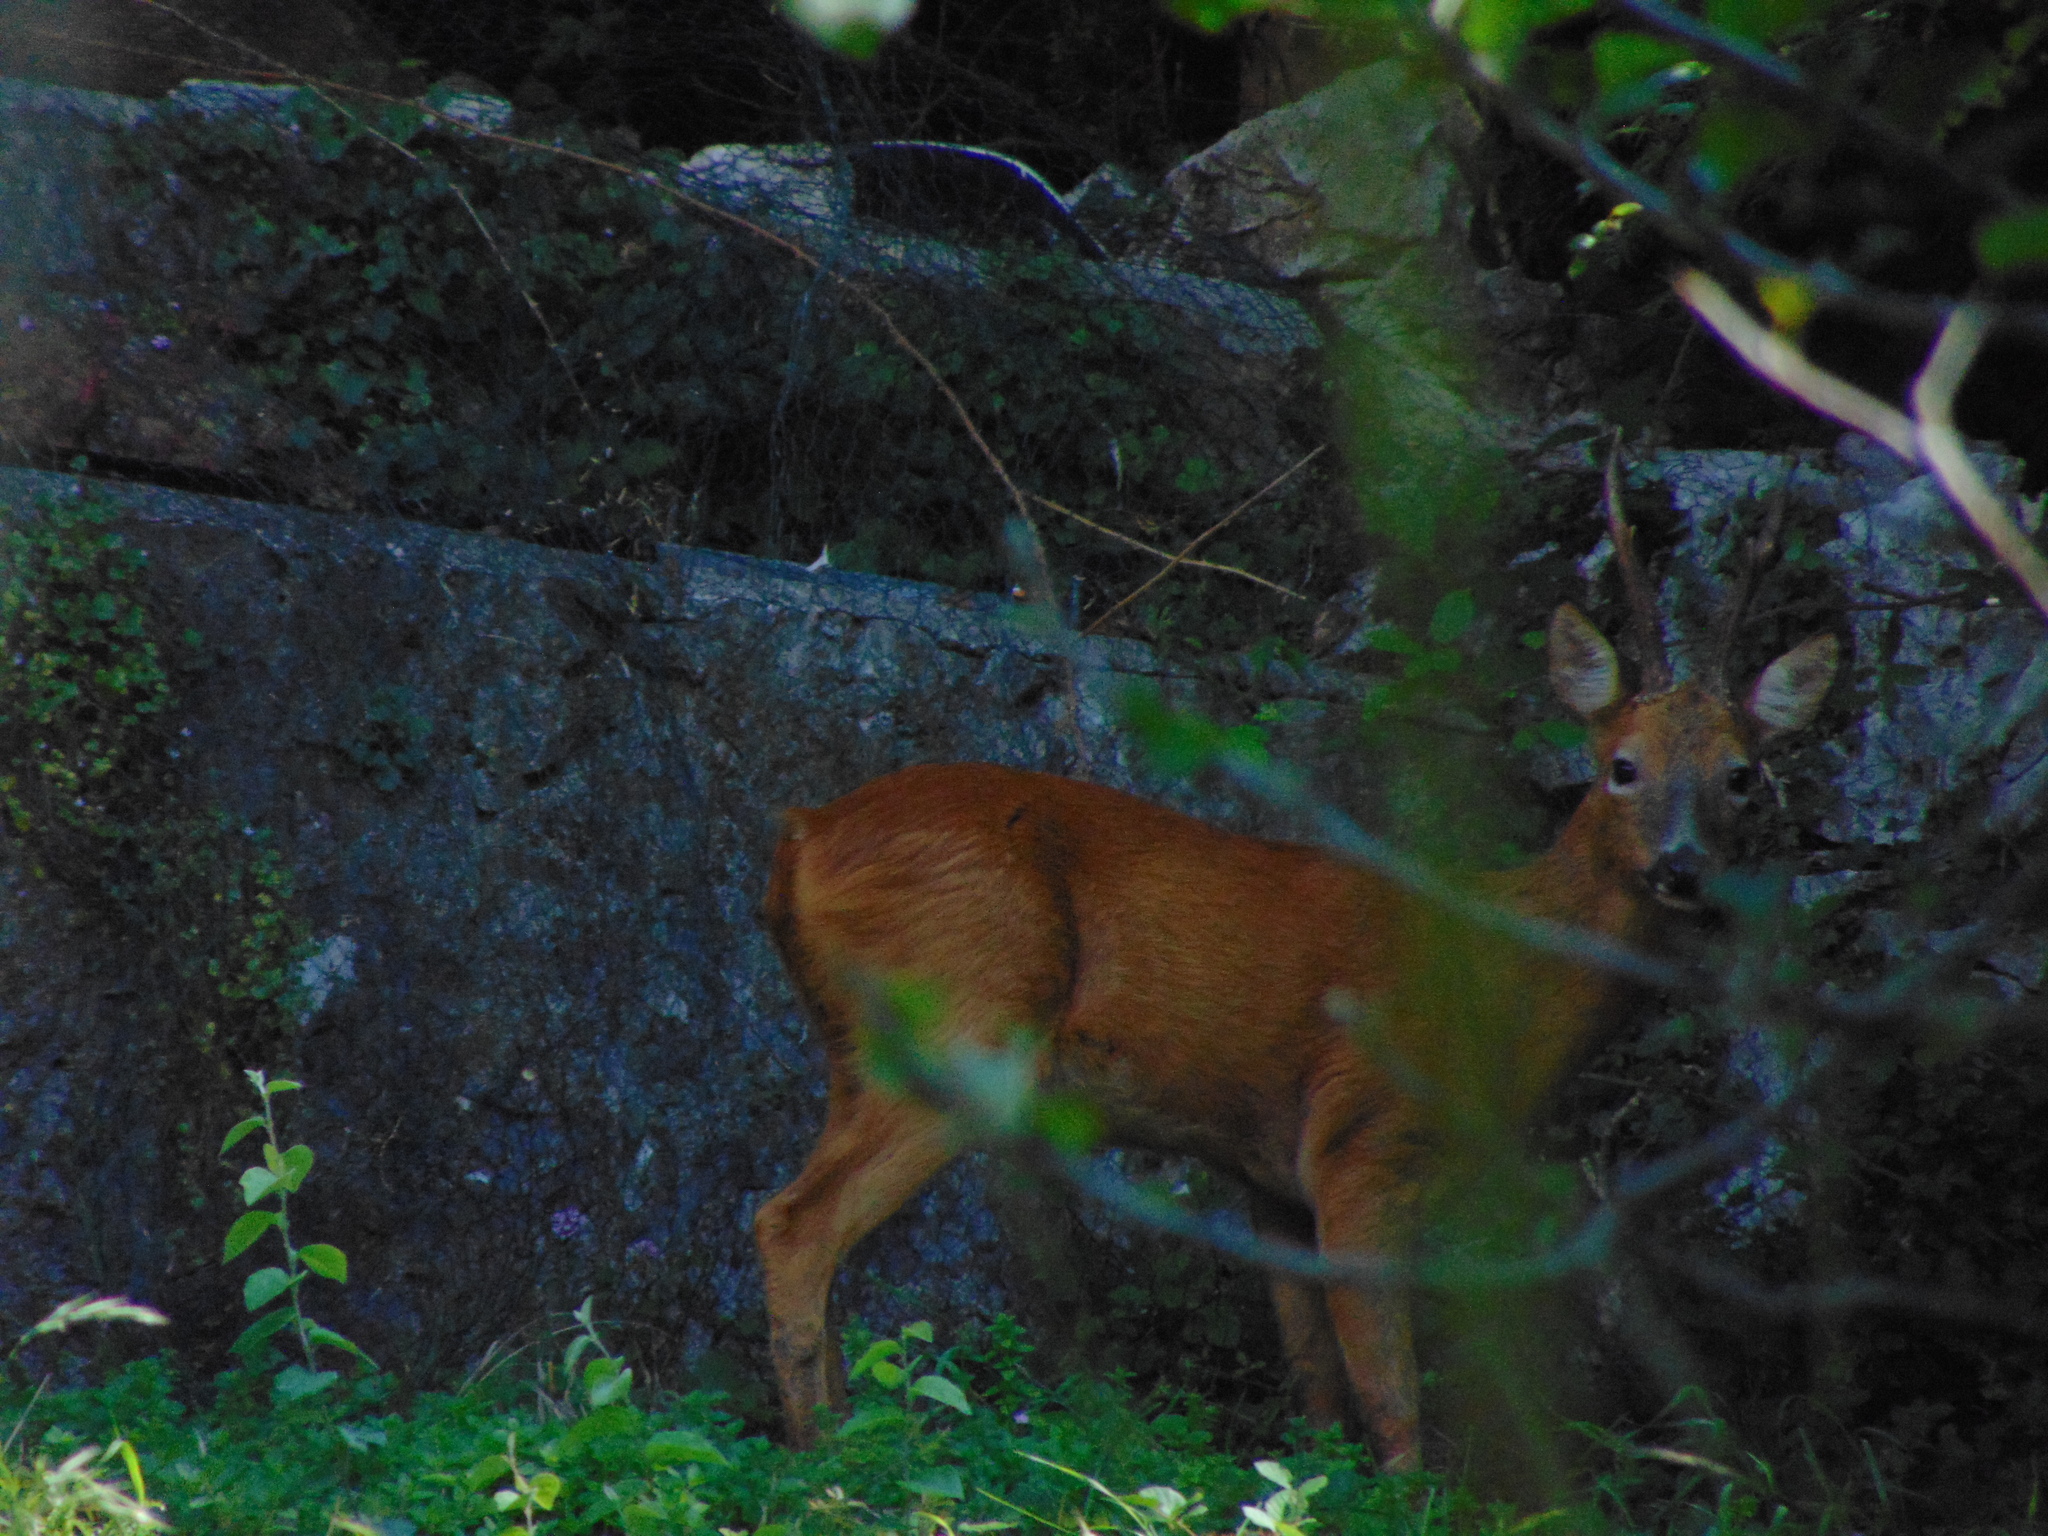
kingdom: Animalia
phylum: Chordata
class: Mammalia
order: Artiodactyla
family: Cervidae
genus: Capreolus
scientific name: Capreolus capreolus
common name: Western roe deer
